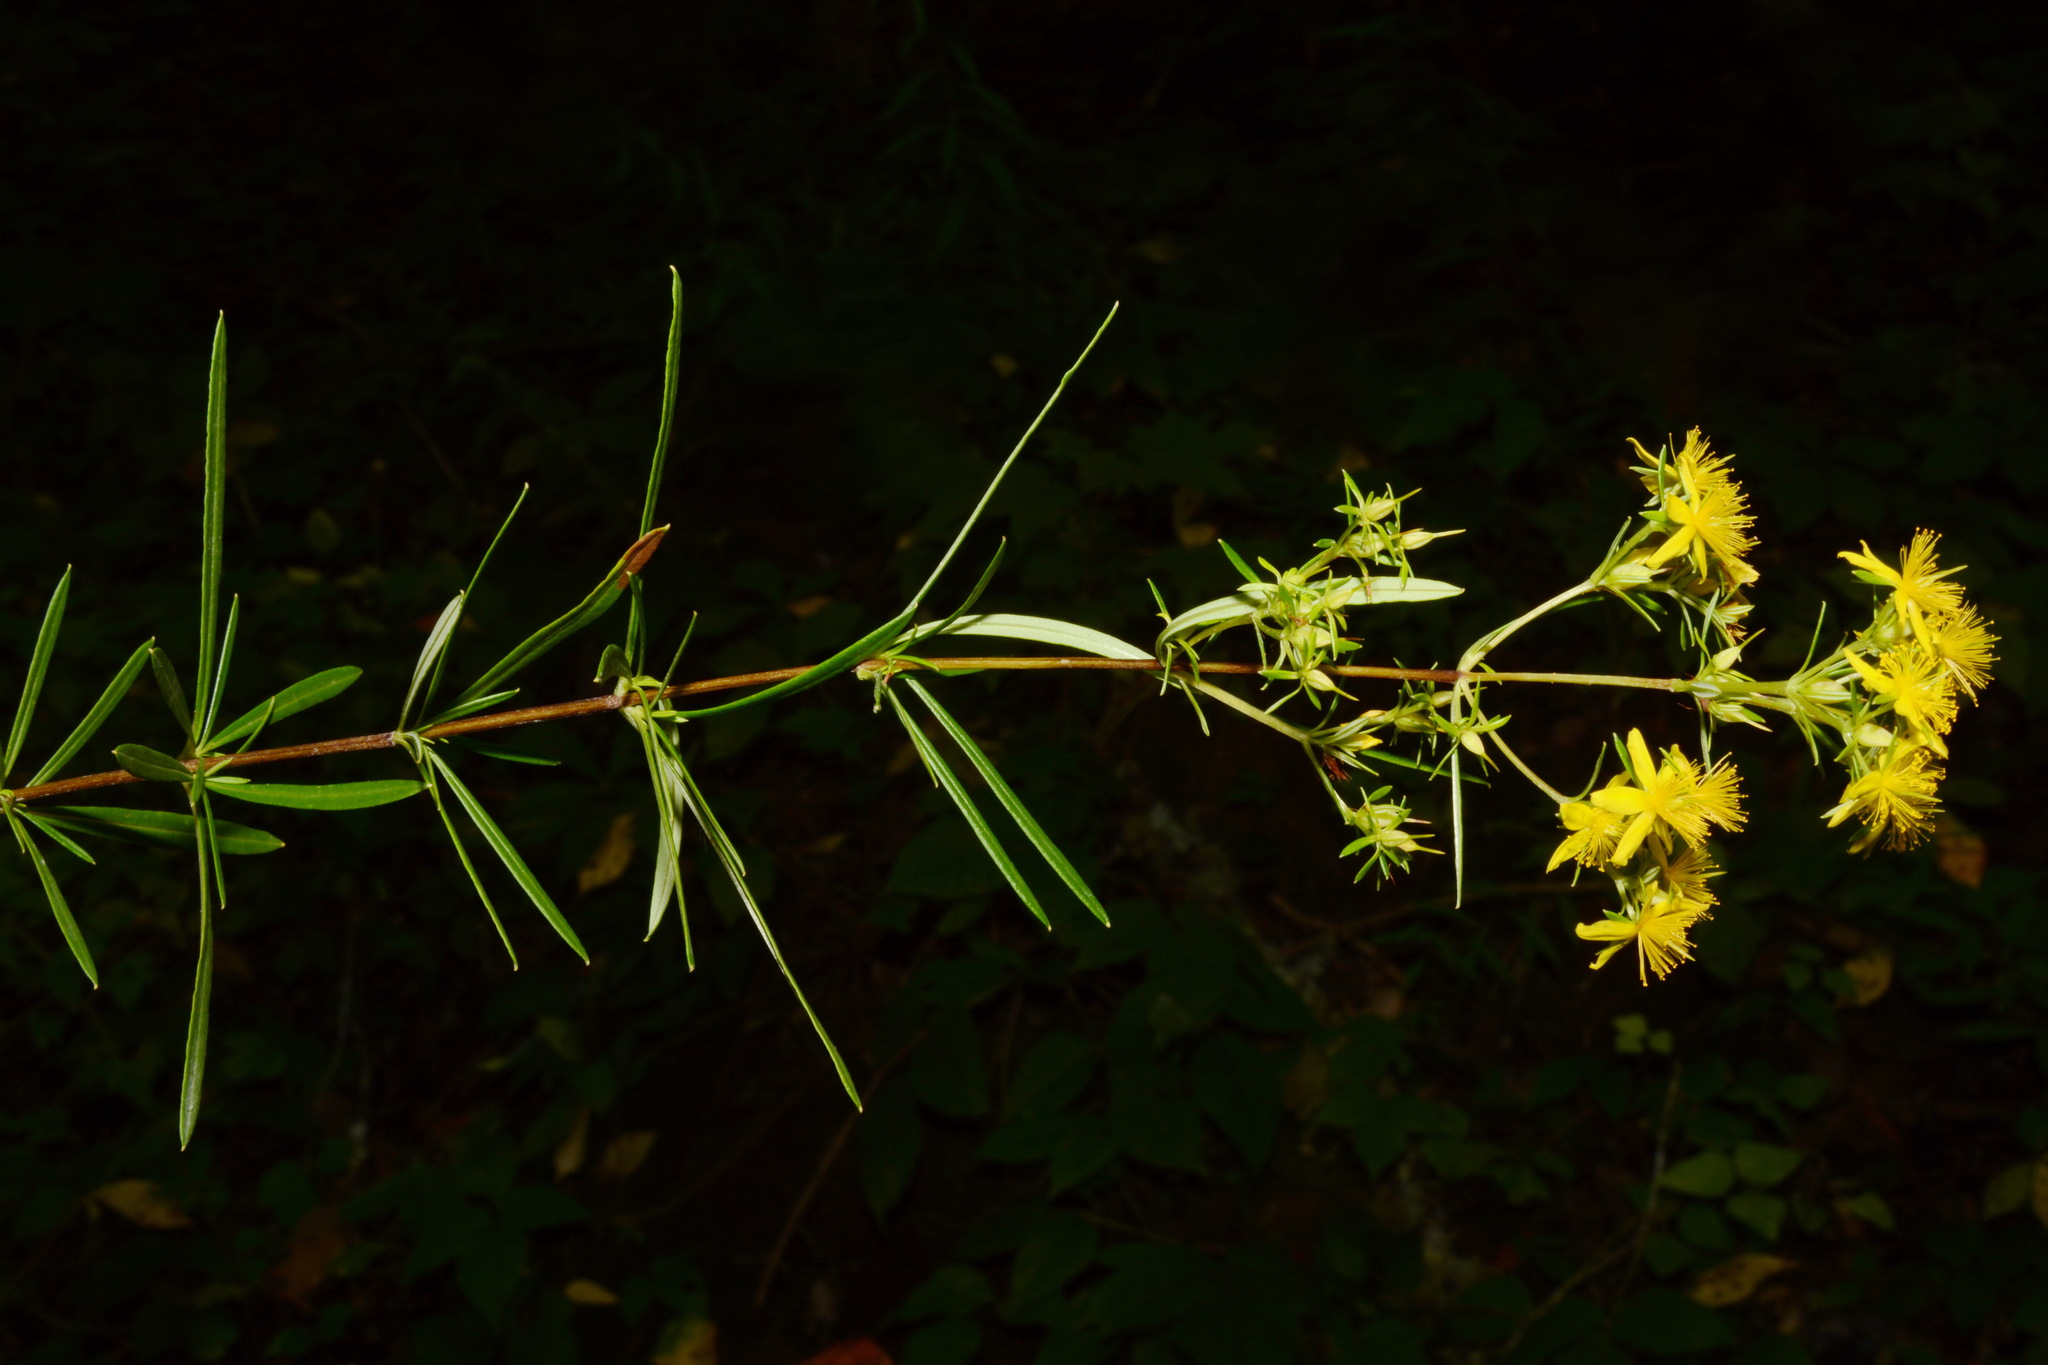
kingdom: Plantae
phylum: Tracheophyta
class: Magnoliopsida
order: Malpighiales
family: Hypericaceae
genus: Hypericum
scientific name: Hypericum densiflorum
